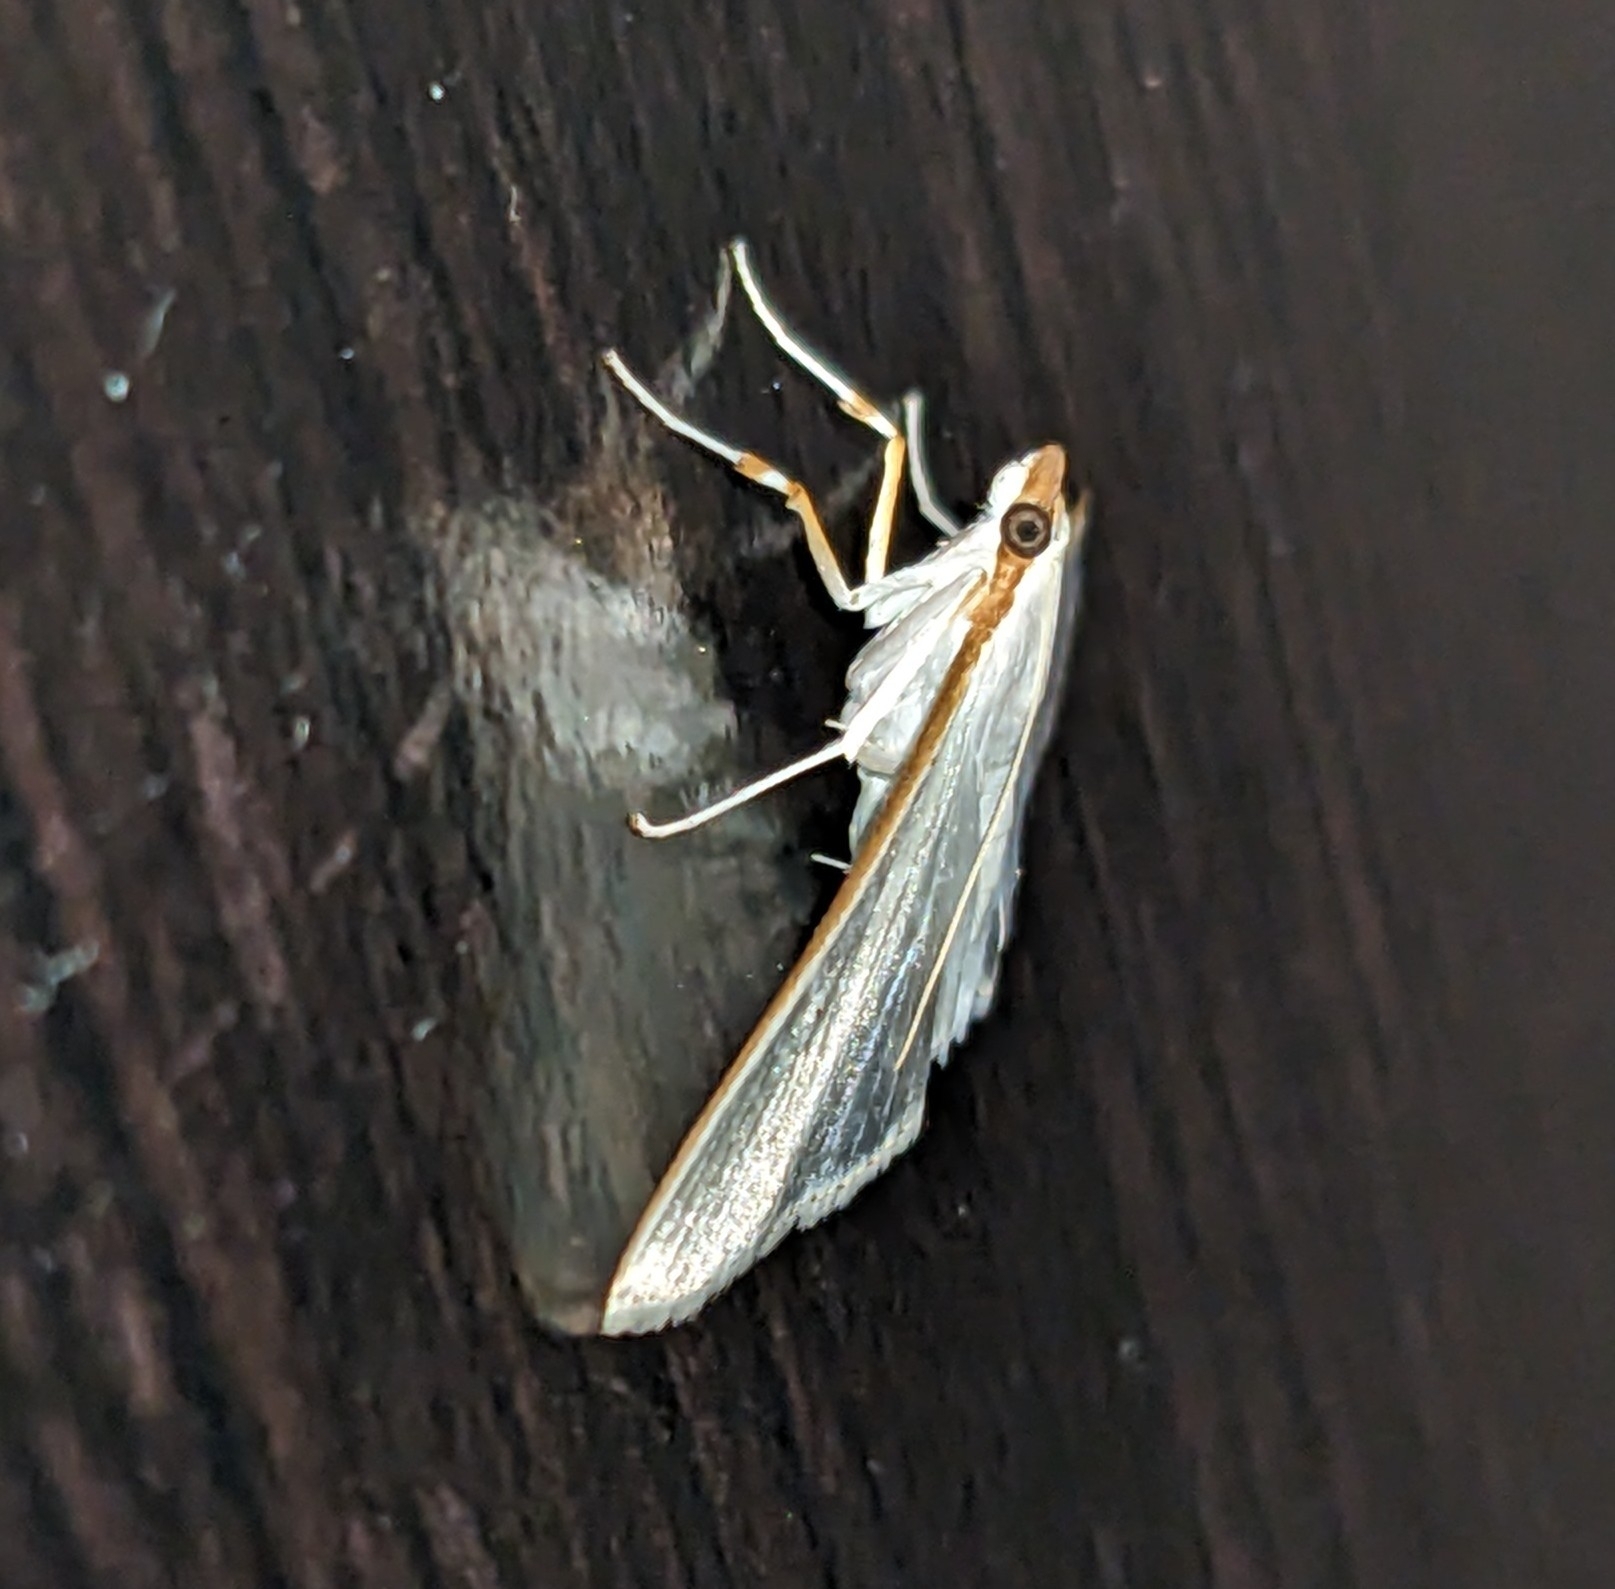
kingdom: Animalia
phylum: Arthropoda
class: Insecta
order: Lepidoptera
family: Crambidae
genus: Palpita
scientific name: Palpita vitrealis
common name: Olive-tree pearl
